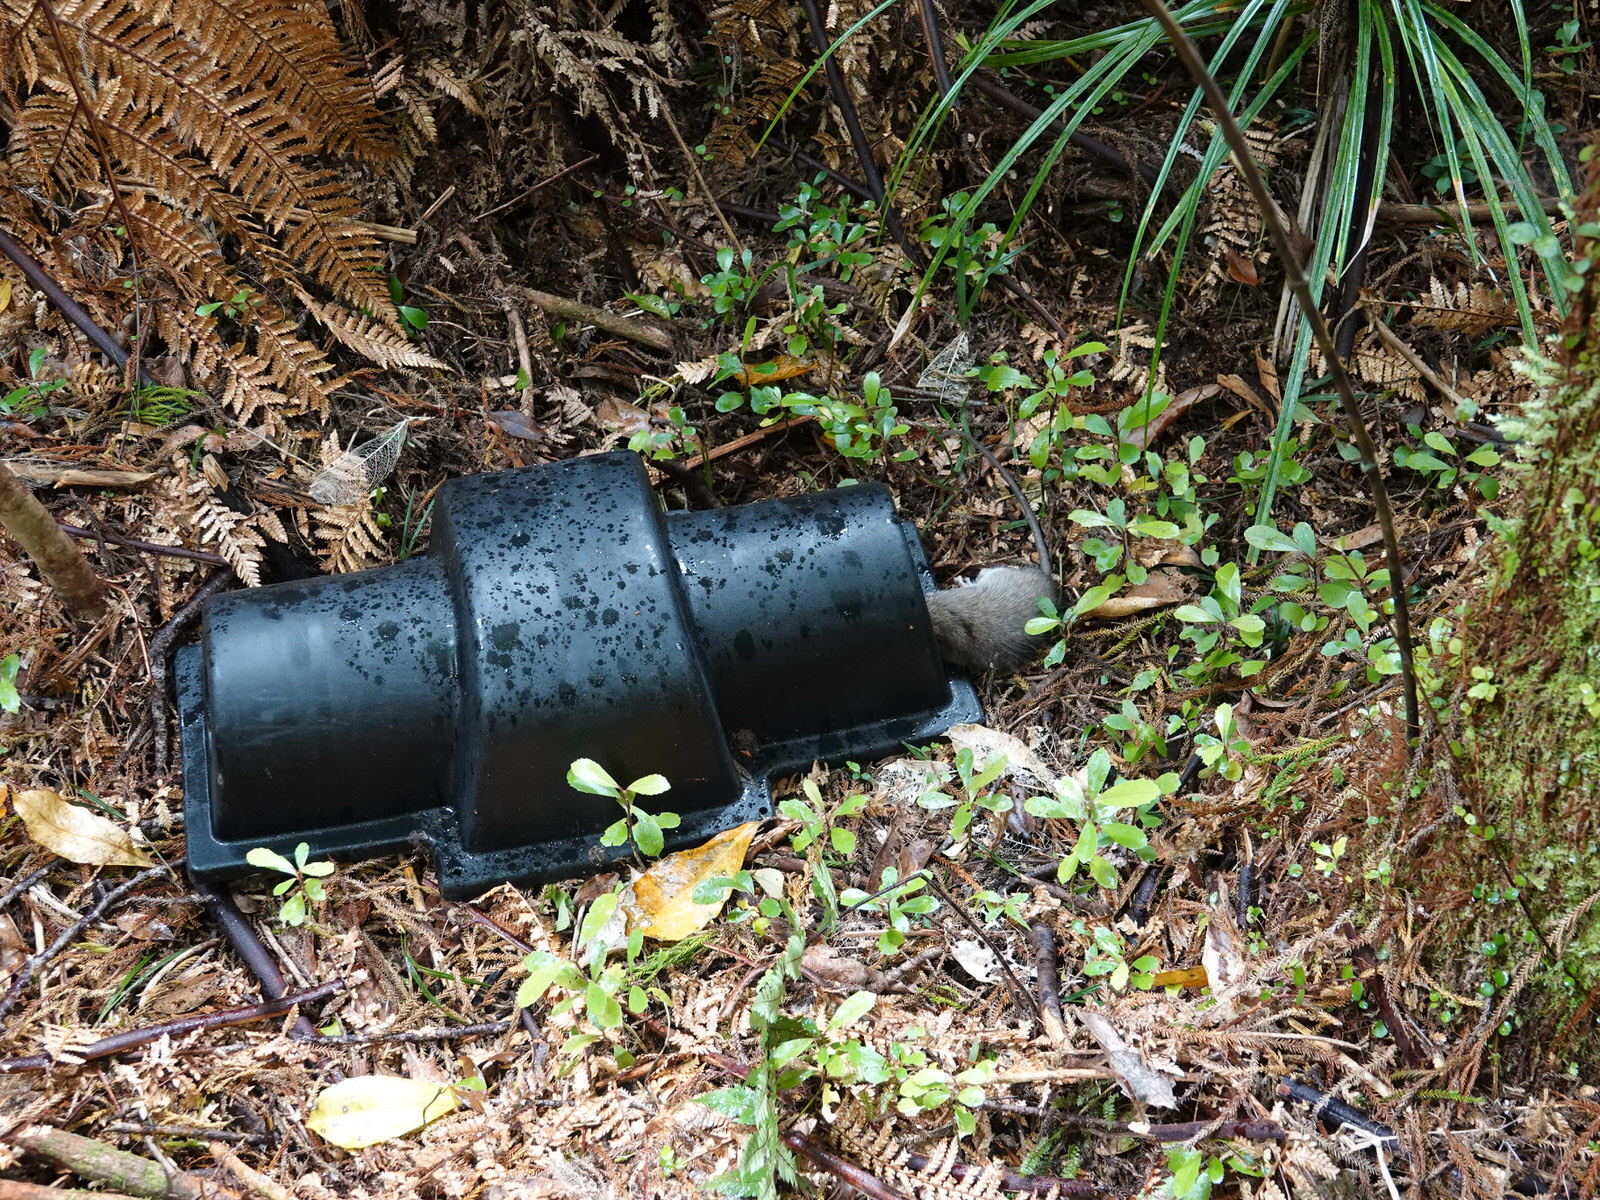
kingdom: Animalia
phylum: Chordata
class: Mammalia
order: Rodentia
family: Muridae
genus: Rattus
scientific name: Rattus rattus
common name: Black rat
